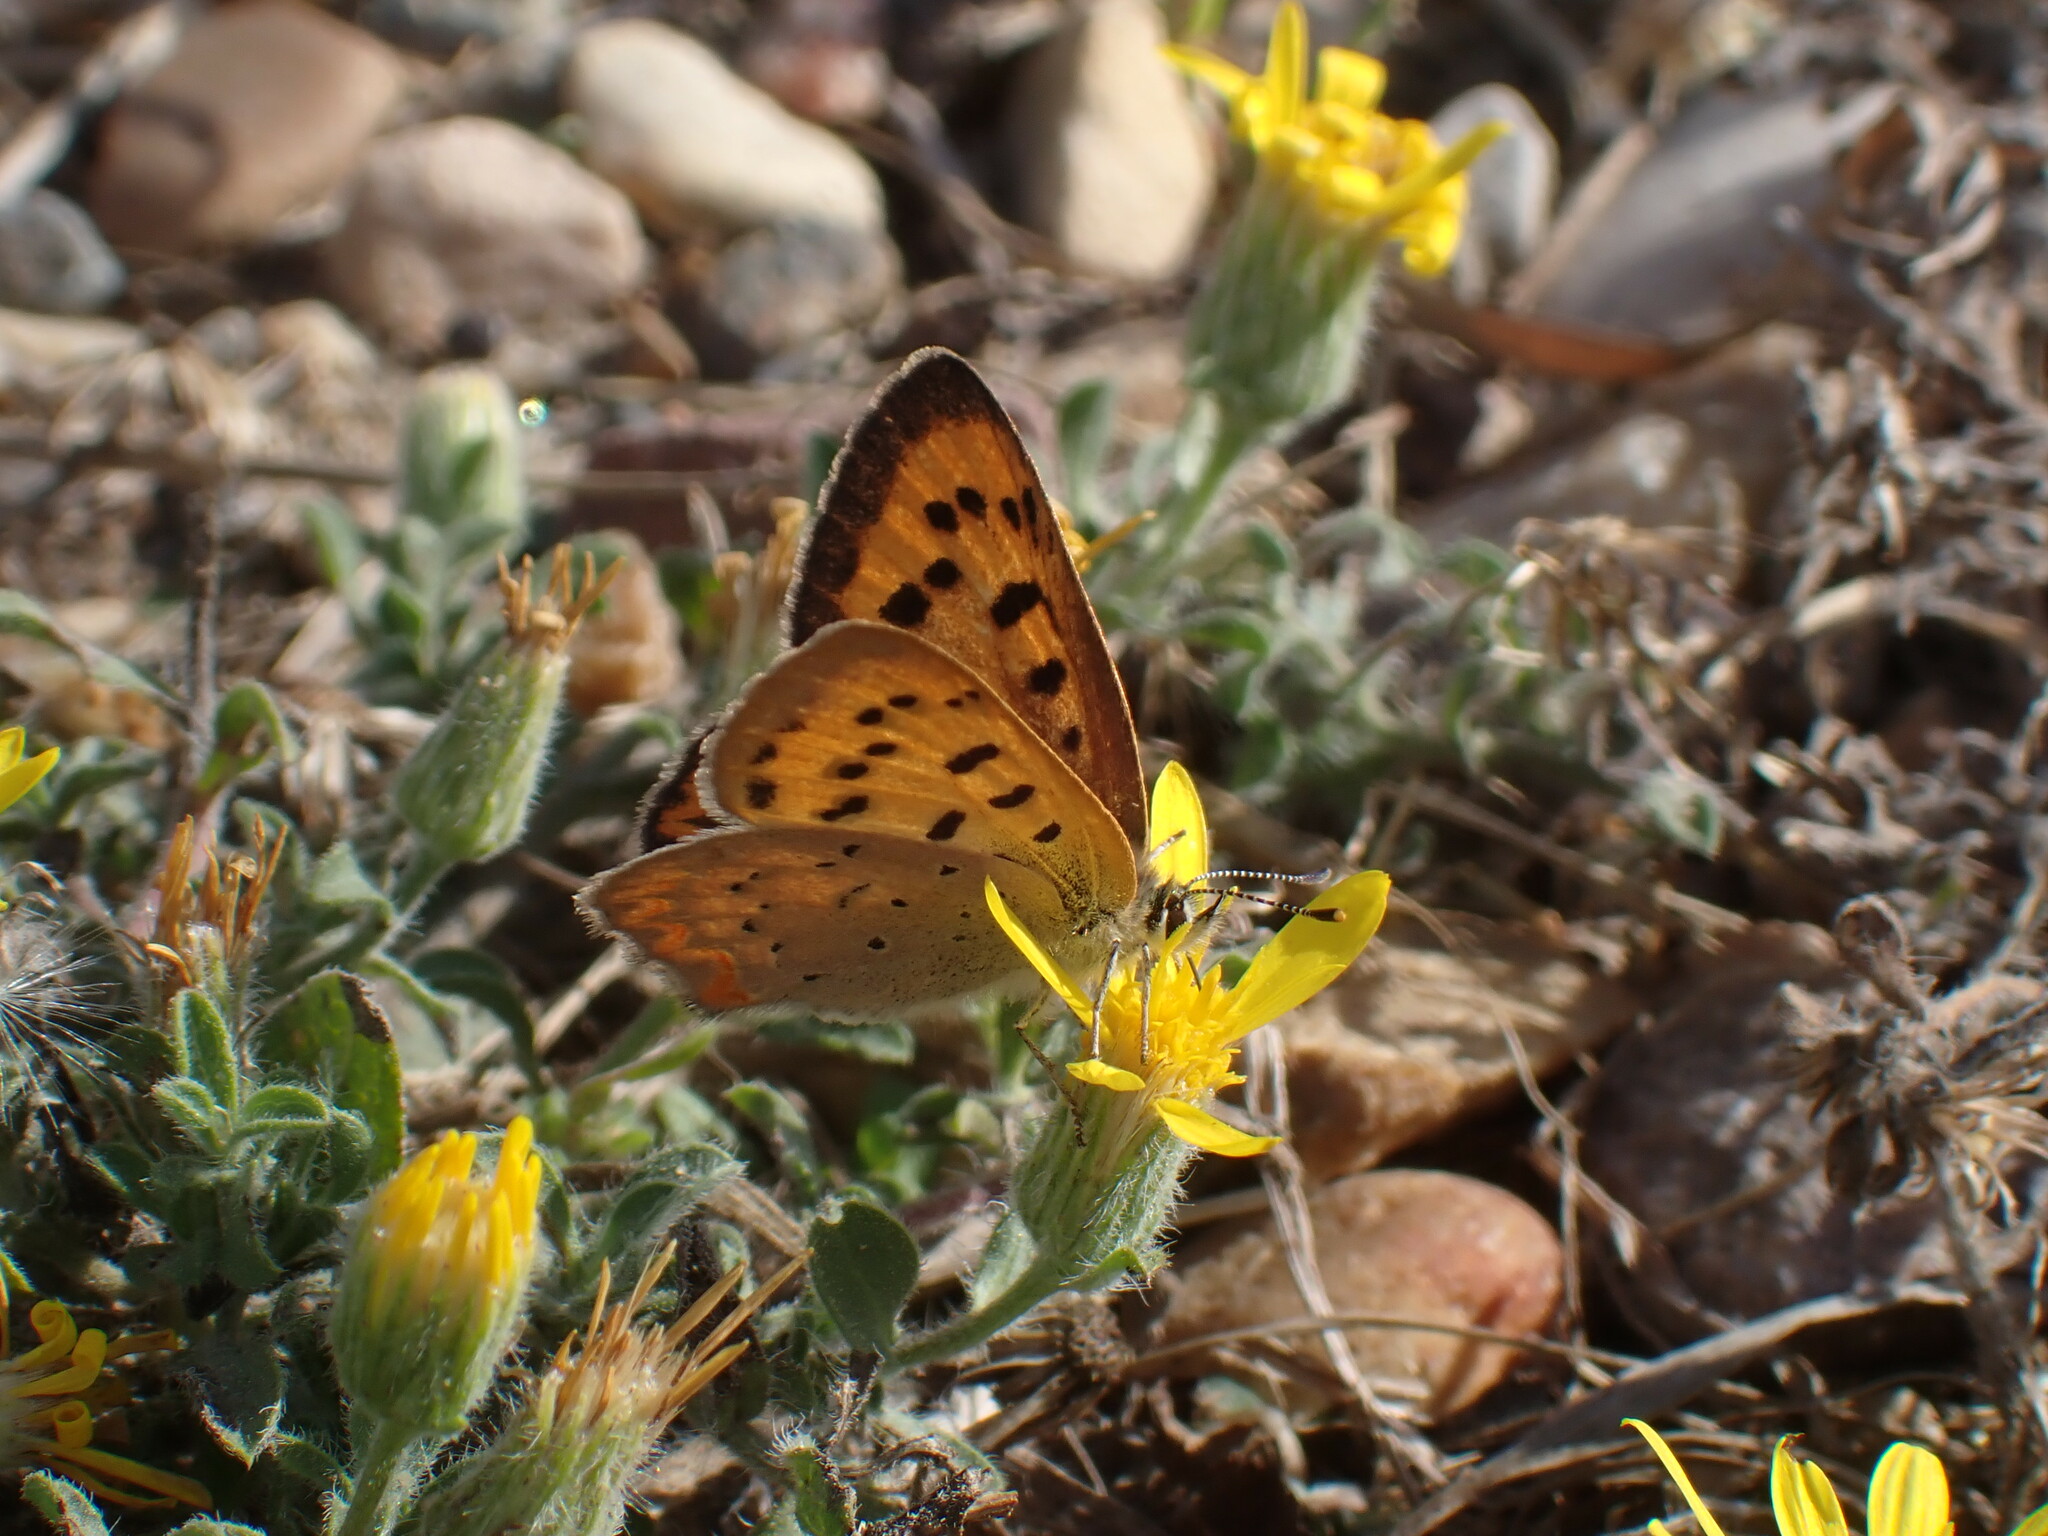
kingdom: Animalia
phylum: Arthropoda
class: Insecta
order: Lepidoptera
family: Lycaenidae
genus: Tharsalea
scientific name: Tharsalea helloides
